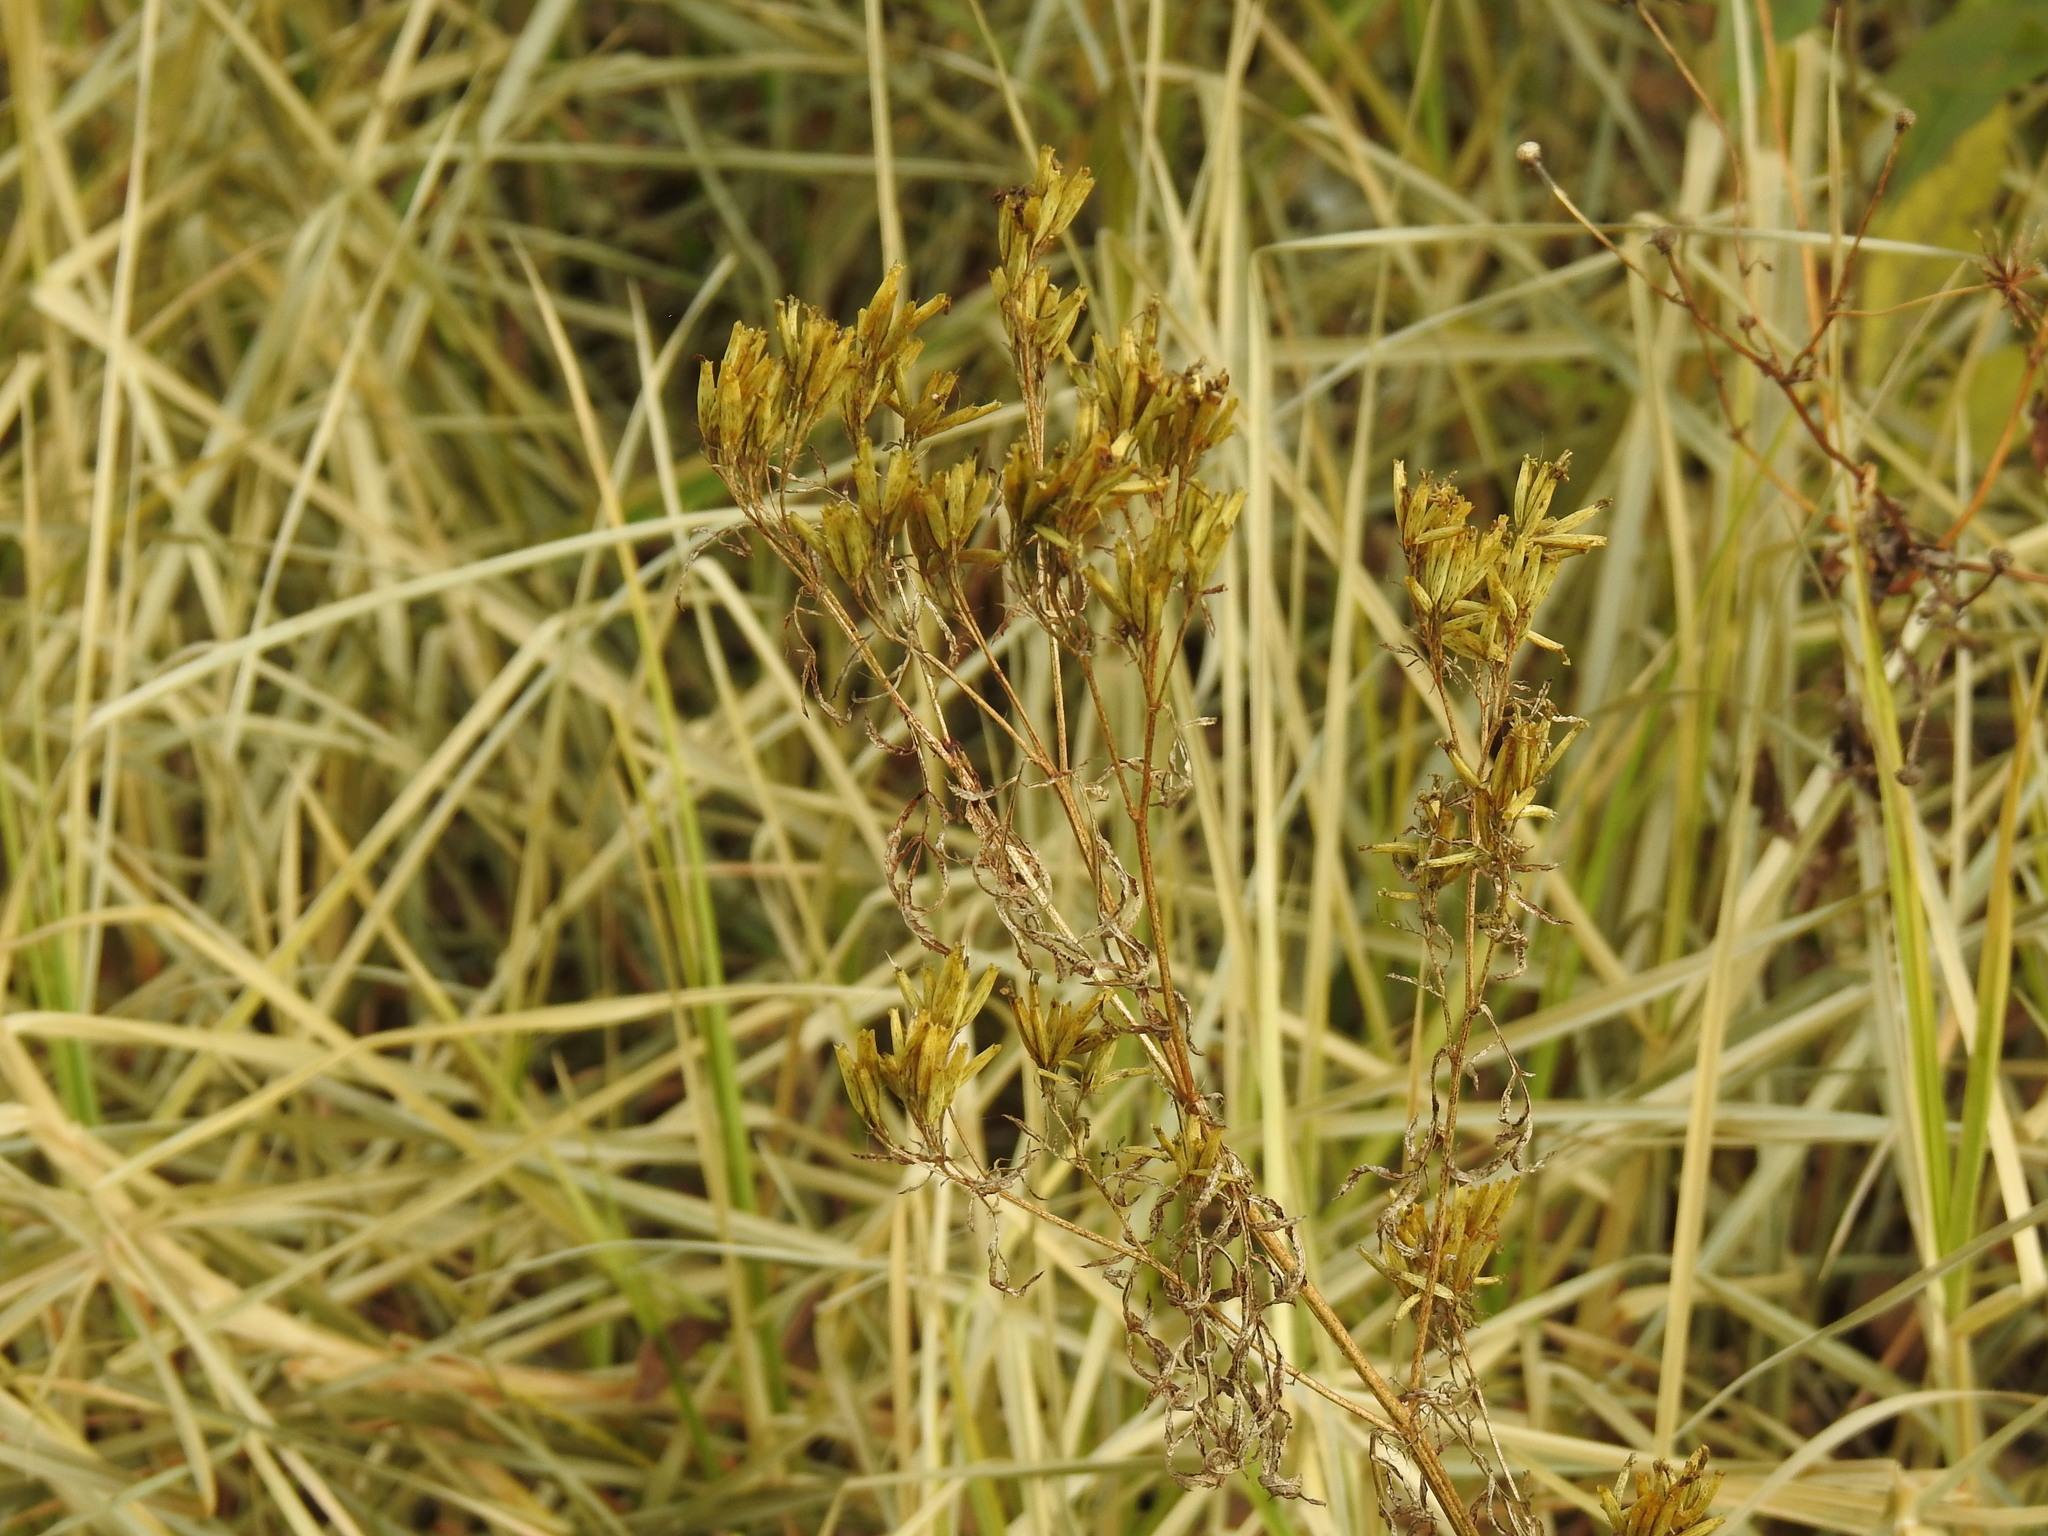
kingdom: Plantae
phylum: Tracheophyta
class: Magnoliopsida
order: Asterales
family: Asteraceae
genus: Tagetes
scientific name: Tagetes minuta
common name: Muster john henry
